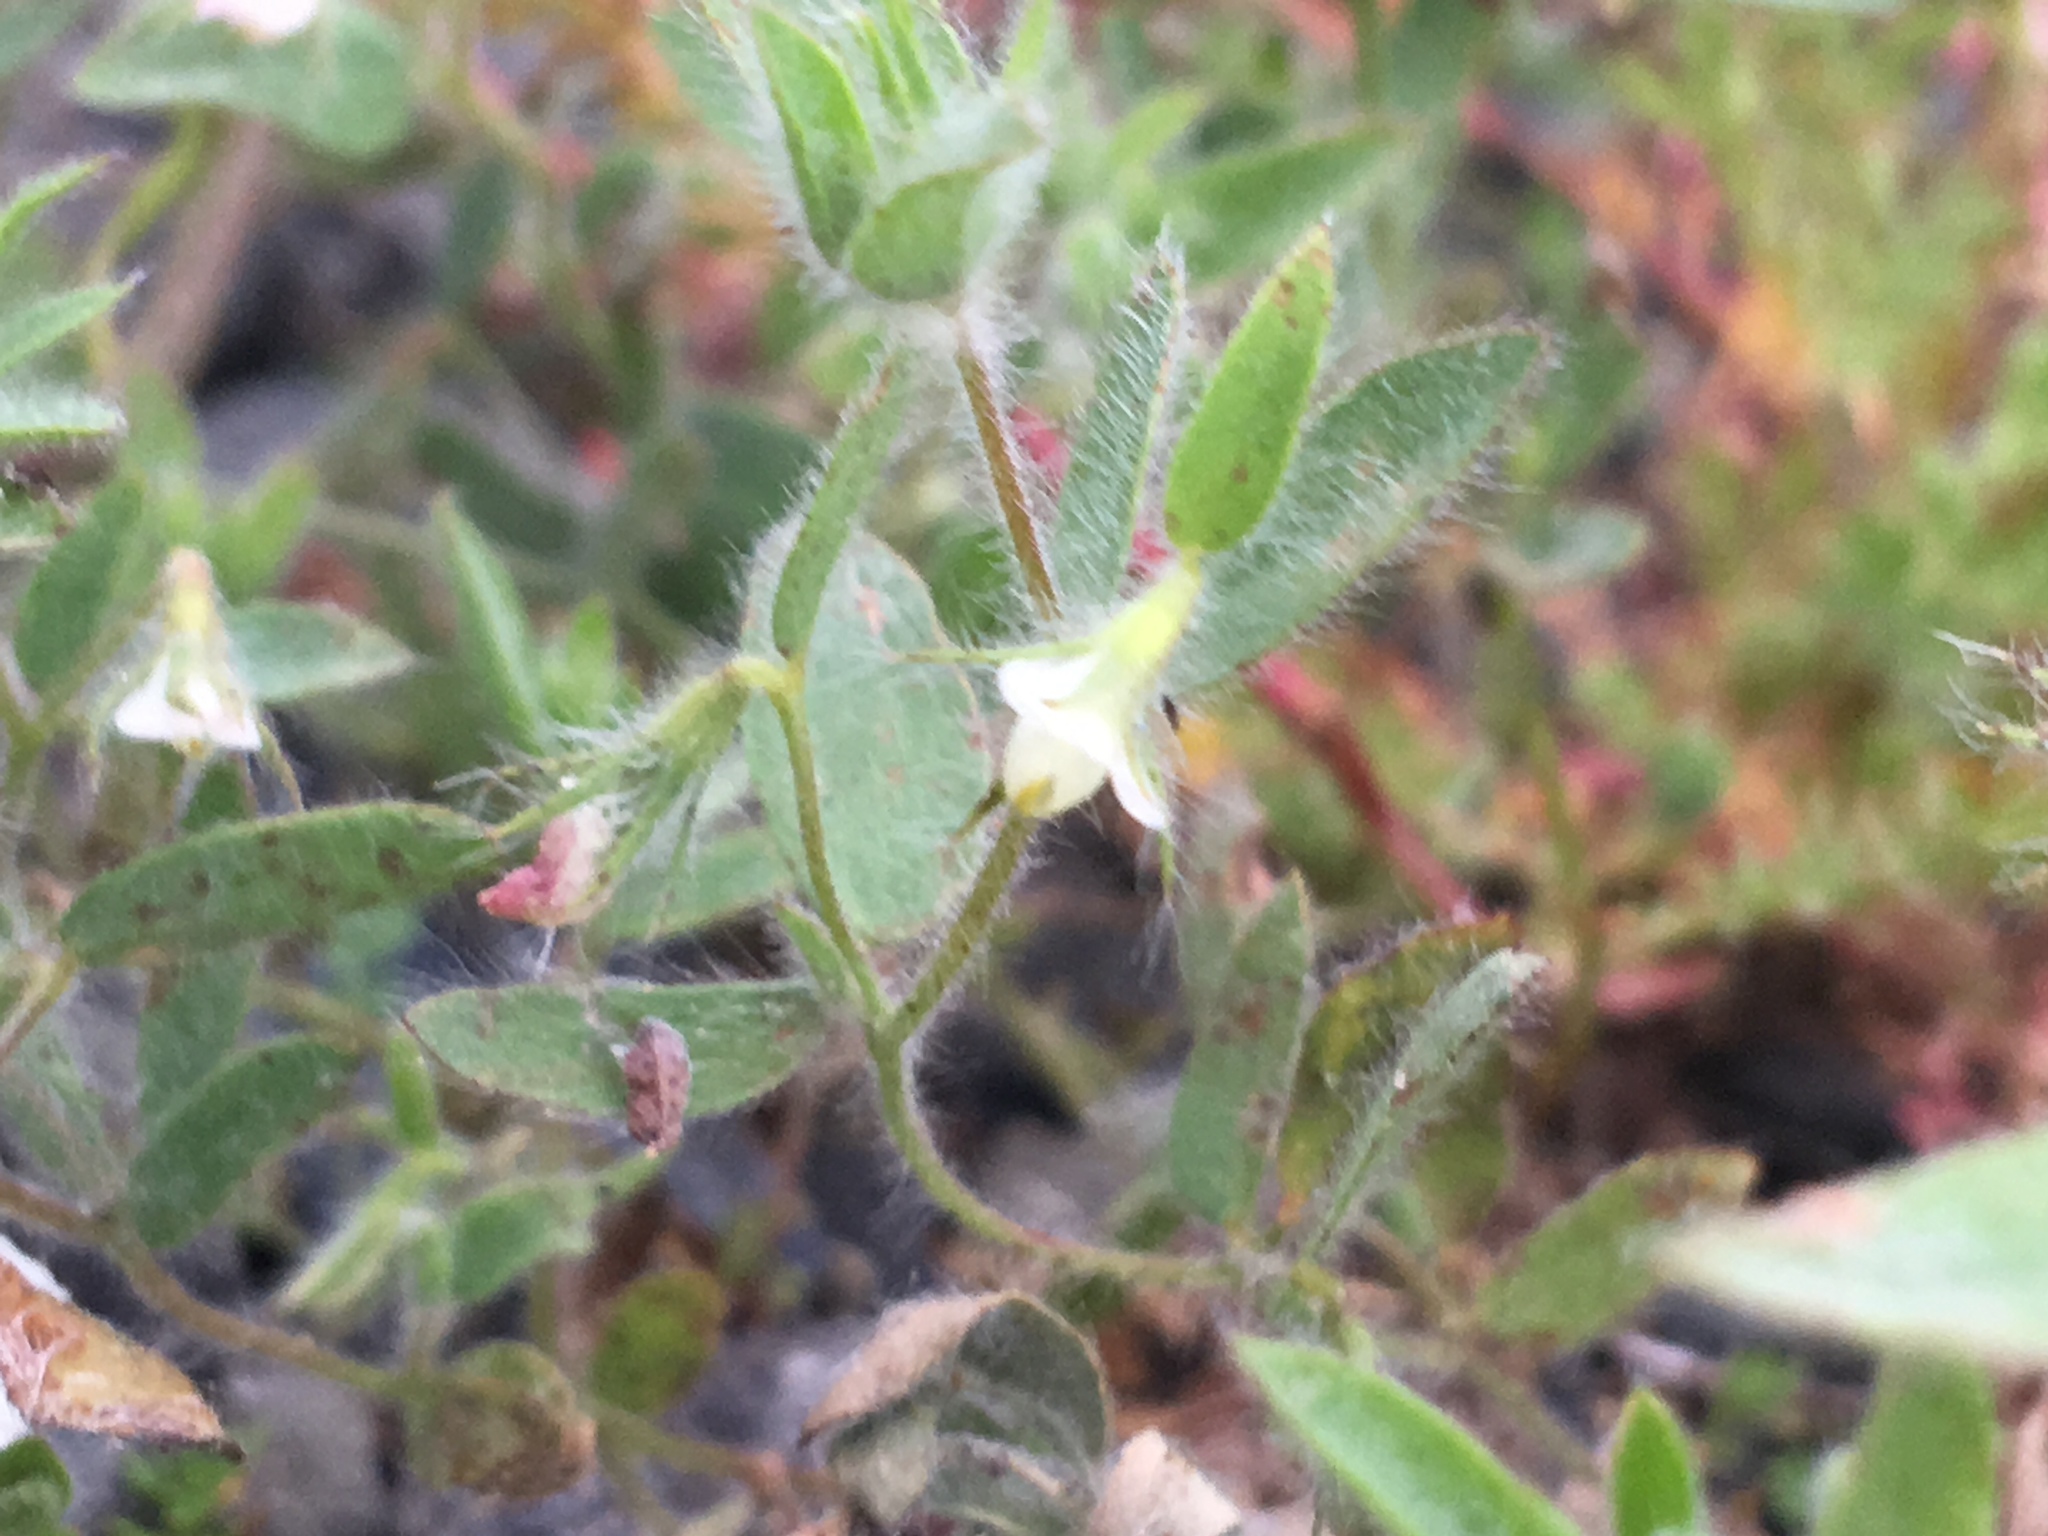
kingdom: Plantae
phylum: Tracheophyta
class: Magnoliopsida
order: Fabales
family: Fabaceae
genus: Acmispon
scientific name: Acmispon americanus
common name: American bird's-foot trefoil
